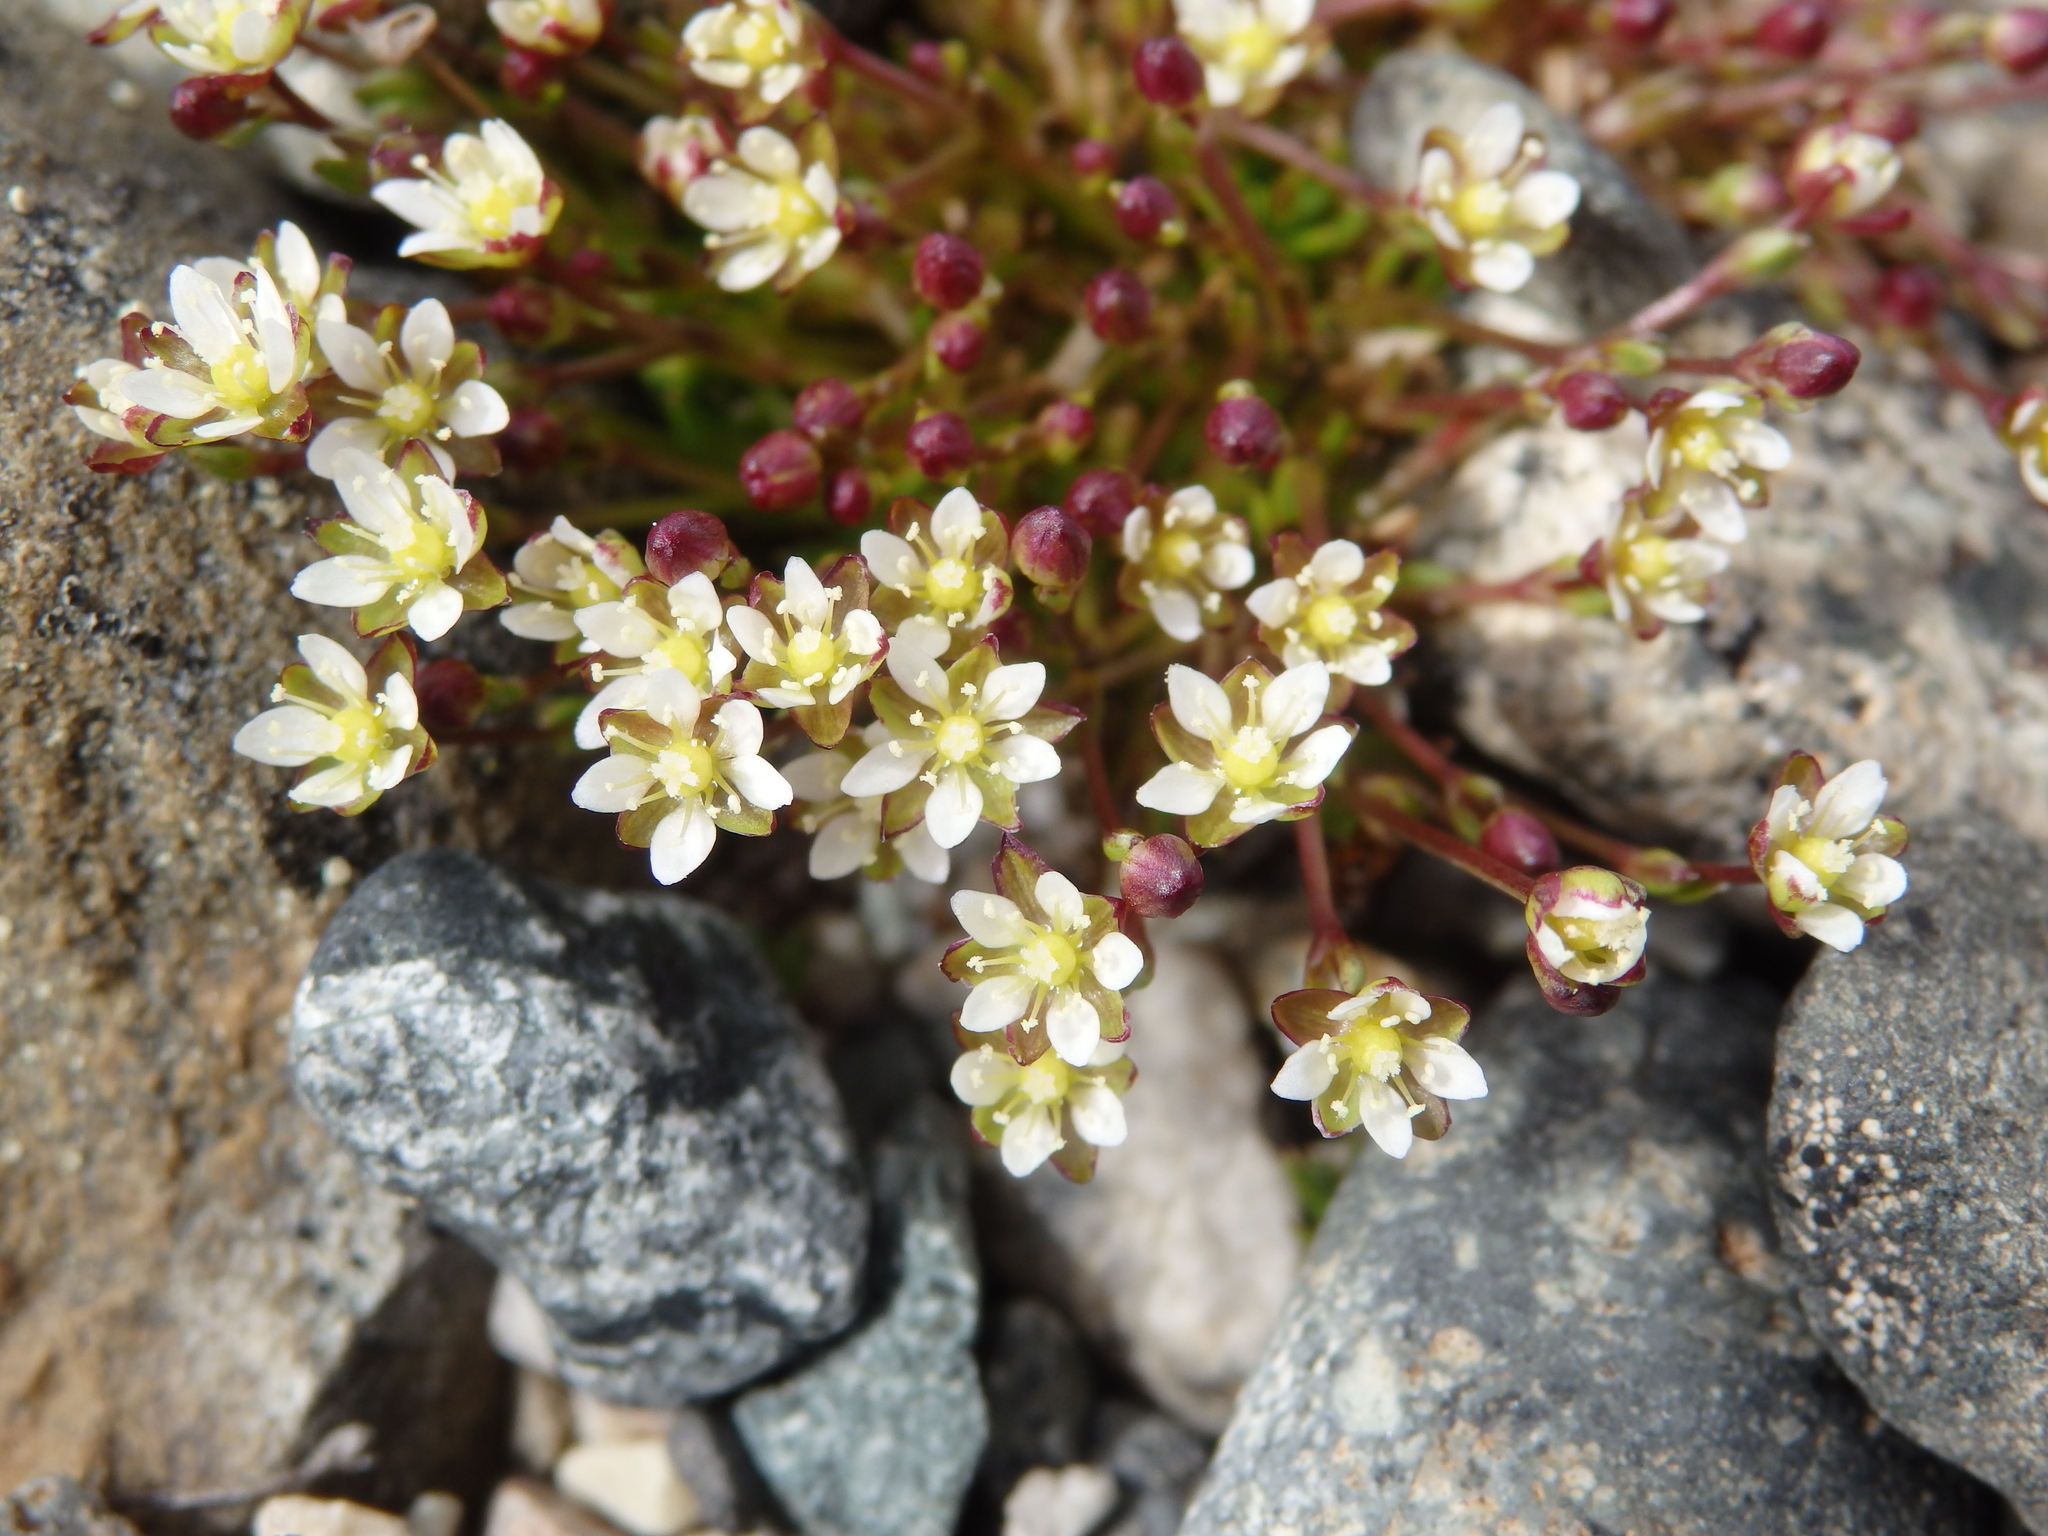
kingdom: Plantae
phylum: Tracheophyta
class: Magnoliopsida
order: Caryophyllales
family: Caryophyllaceae
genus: Sagina
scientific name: Sagina nivalis
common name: Snow pearlwort
